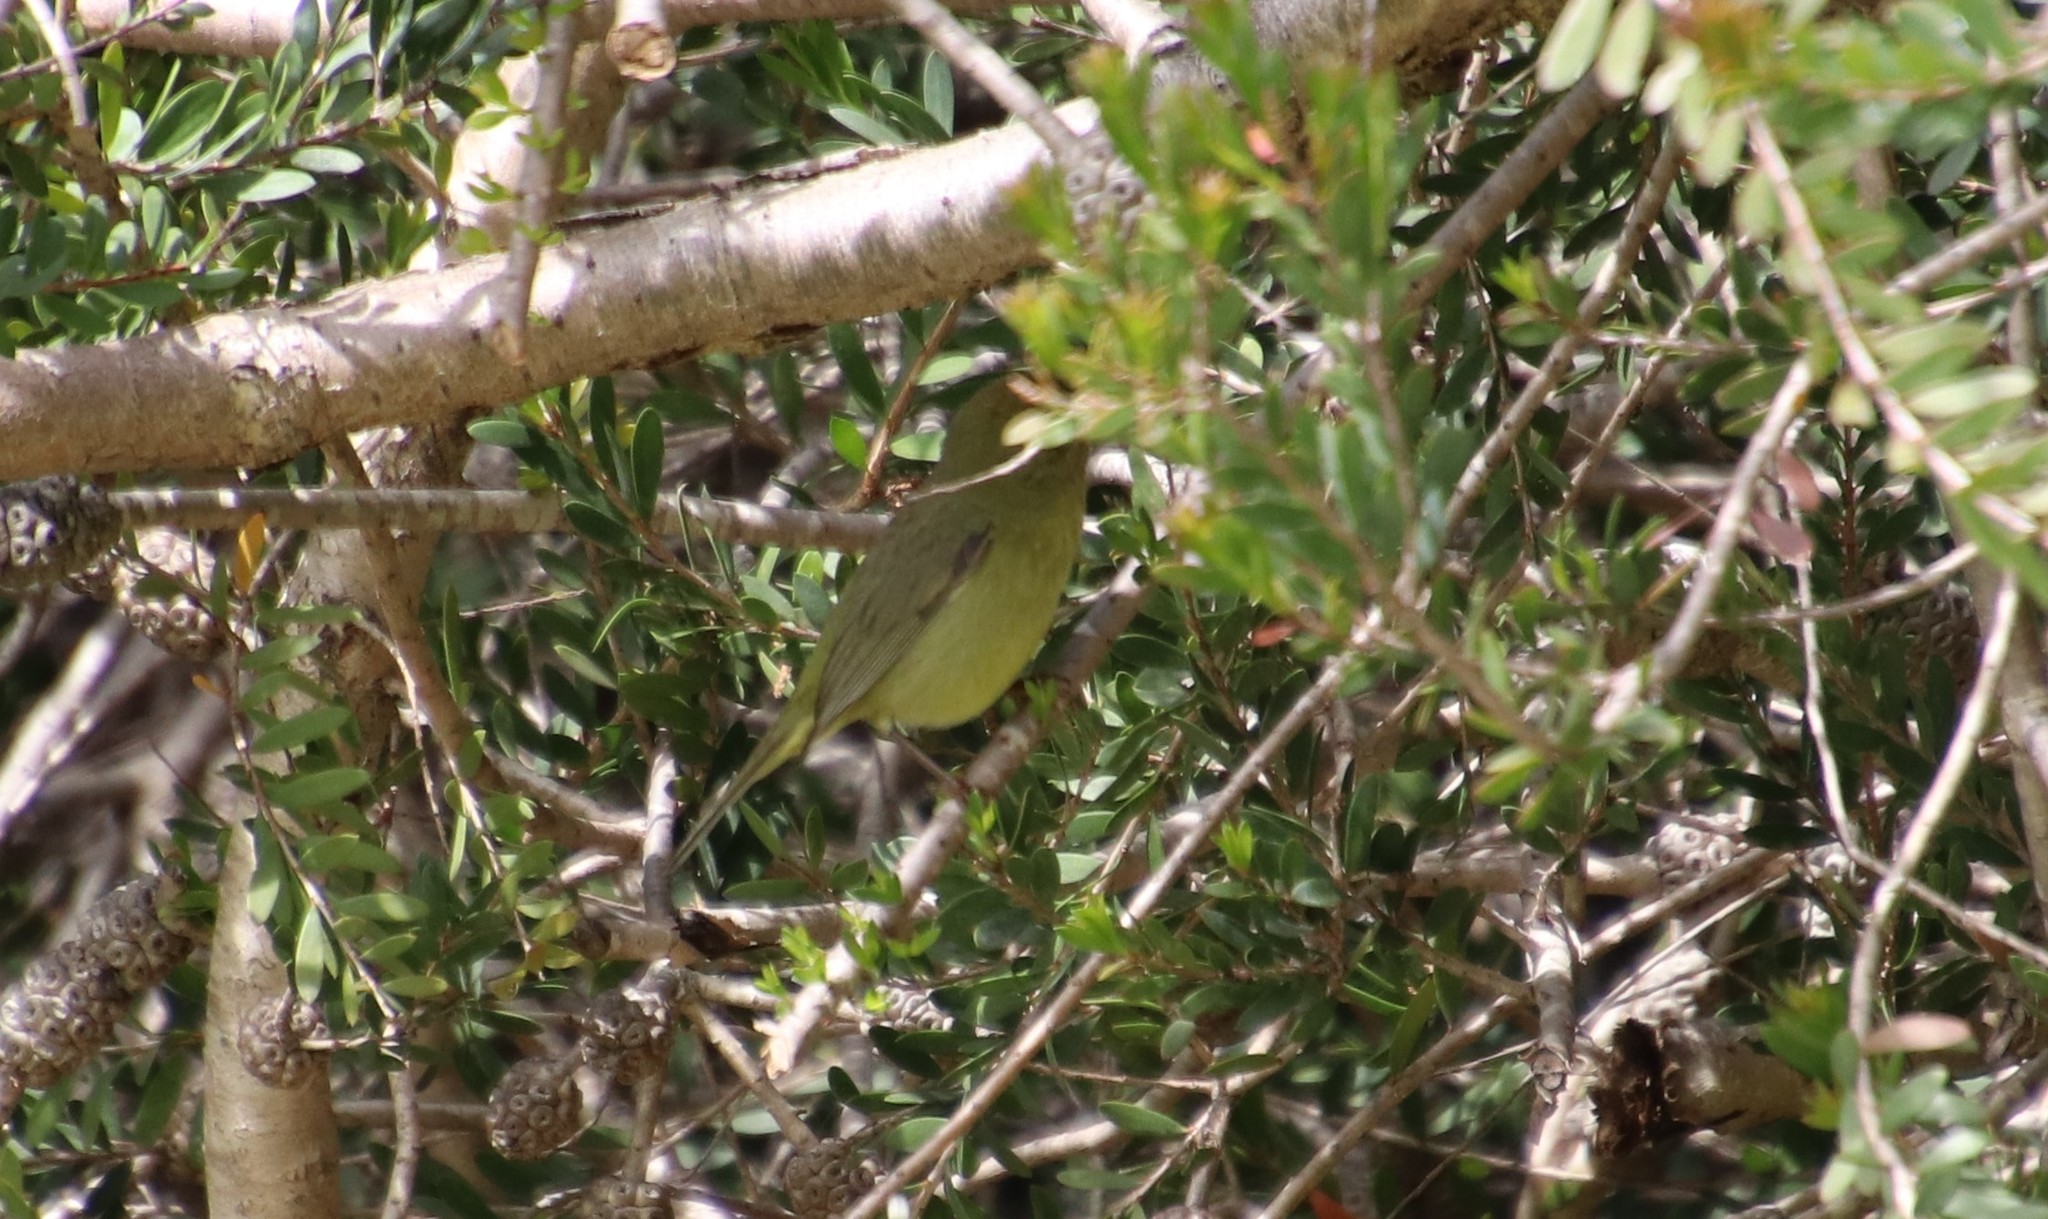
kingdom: Animalia
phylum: Chordata
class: Aves
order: Passeriformes
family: Parulidae
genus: Leiothlypis
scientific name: Leiothlypis celata
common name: Orange-crowned warbler
